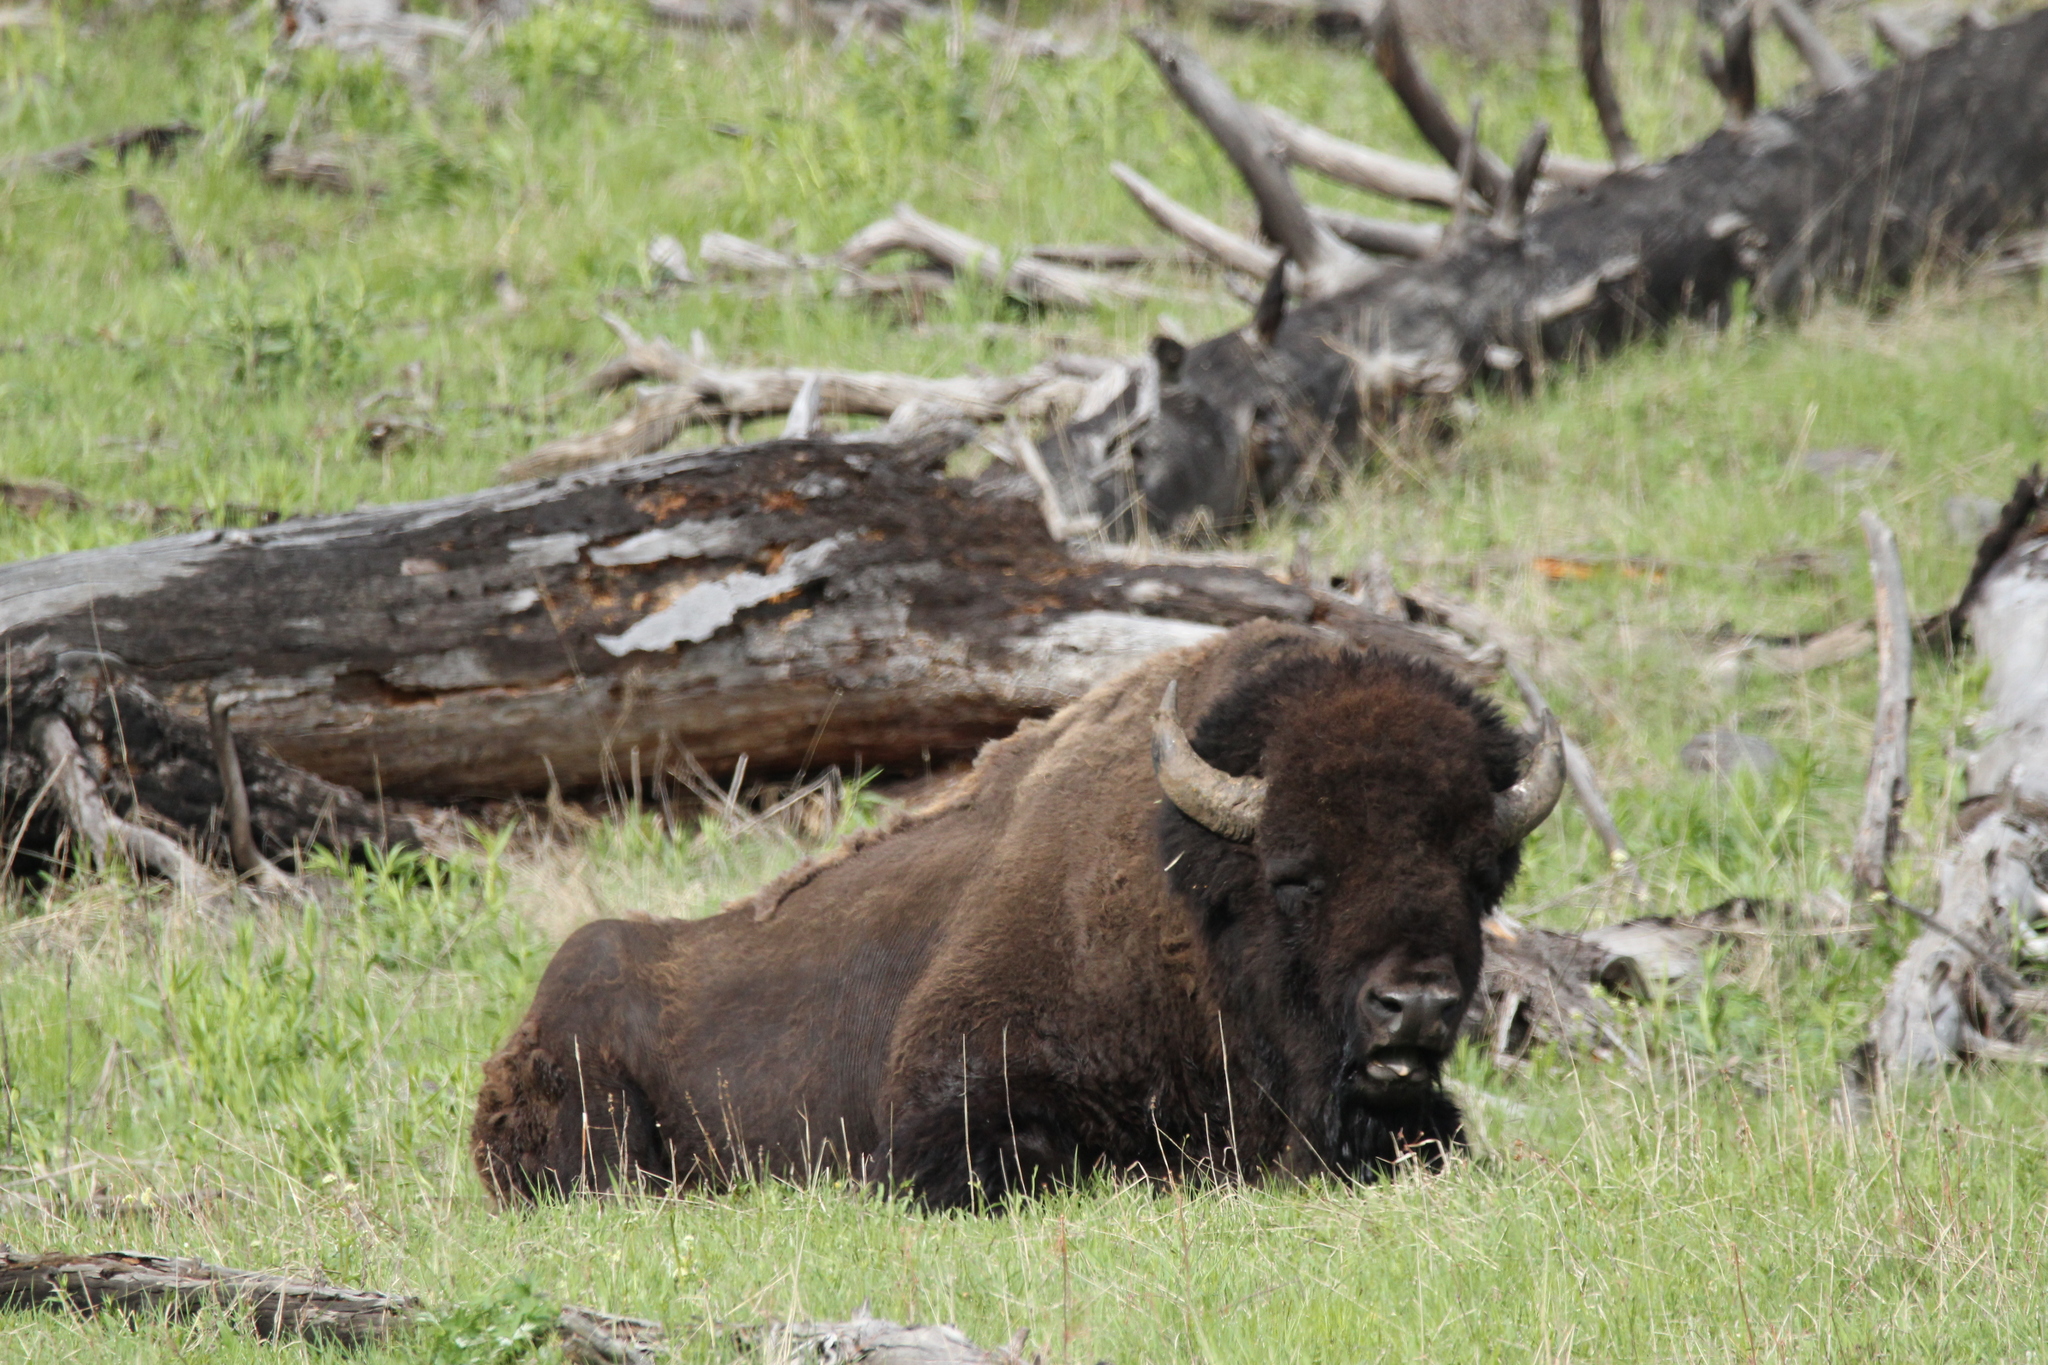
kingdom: Animalia
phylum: Chordata
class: Mammalia
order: Artiodactyla
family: Bovidae
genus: Bison
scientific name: Bison bison
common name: American bison
